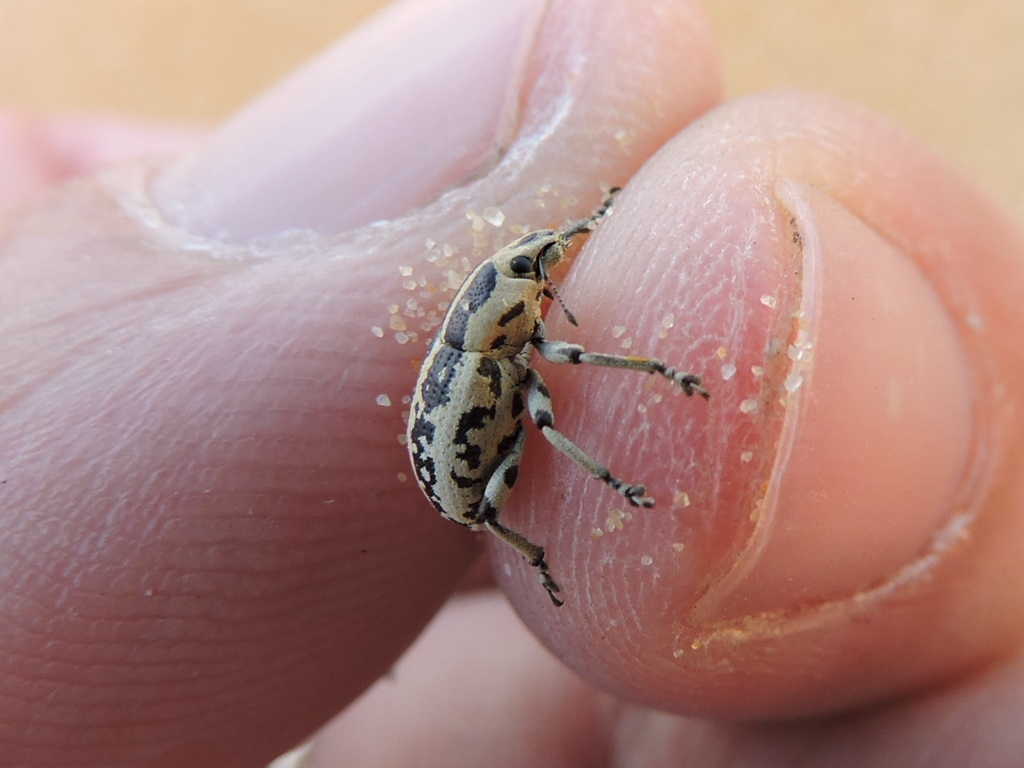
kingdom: Animalia
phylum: Arthropoda
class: Insecta
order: Coleoptera
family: Curculionidae
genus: Eudiagogus
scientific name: Eudiagogus rosenschoeldi
